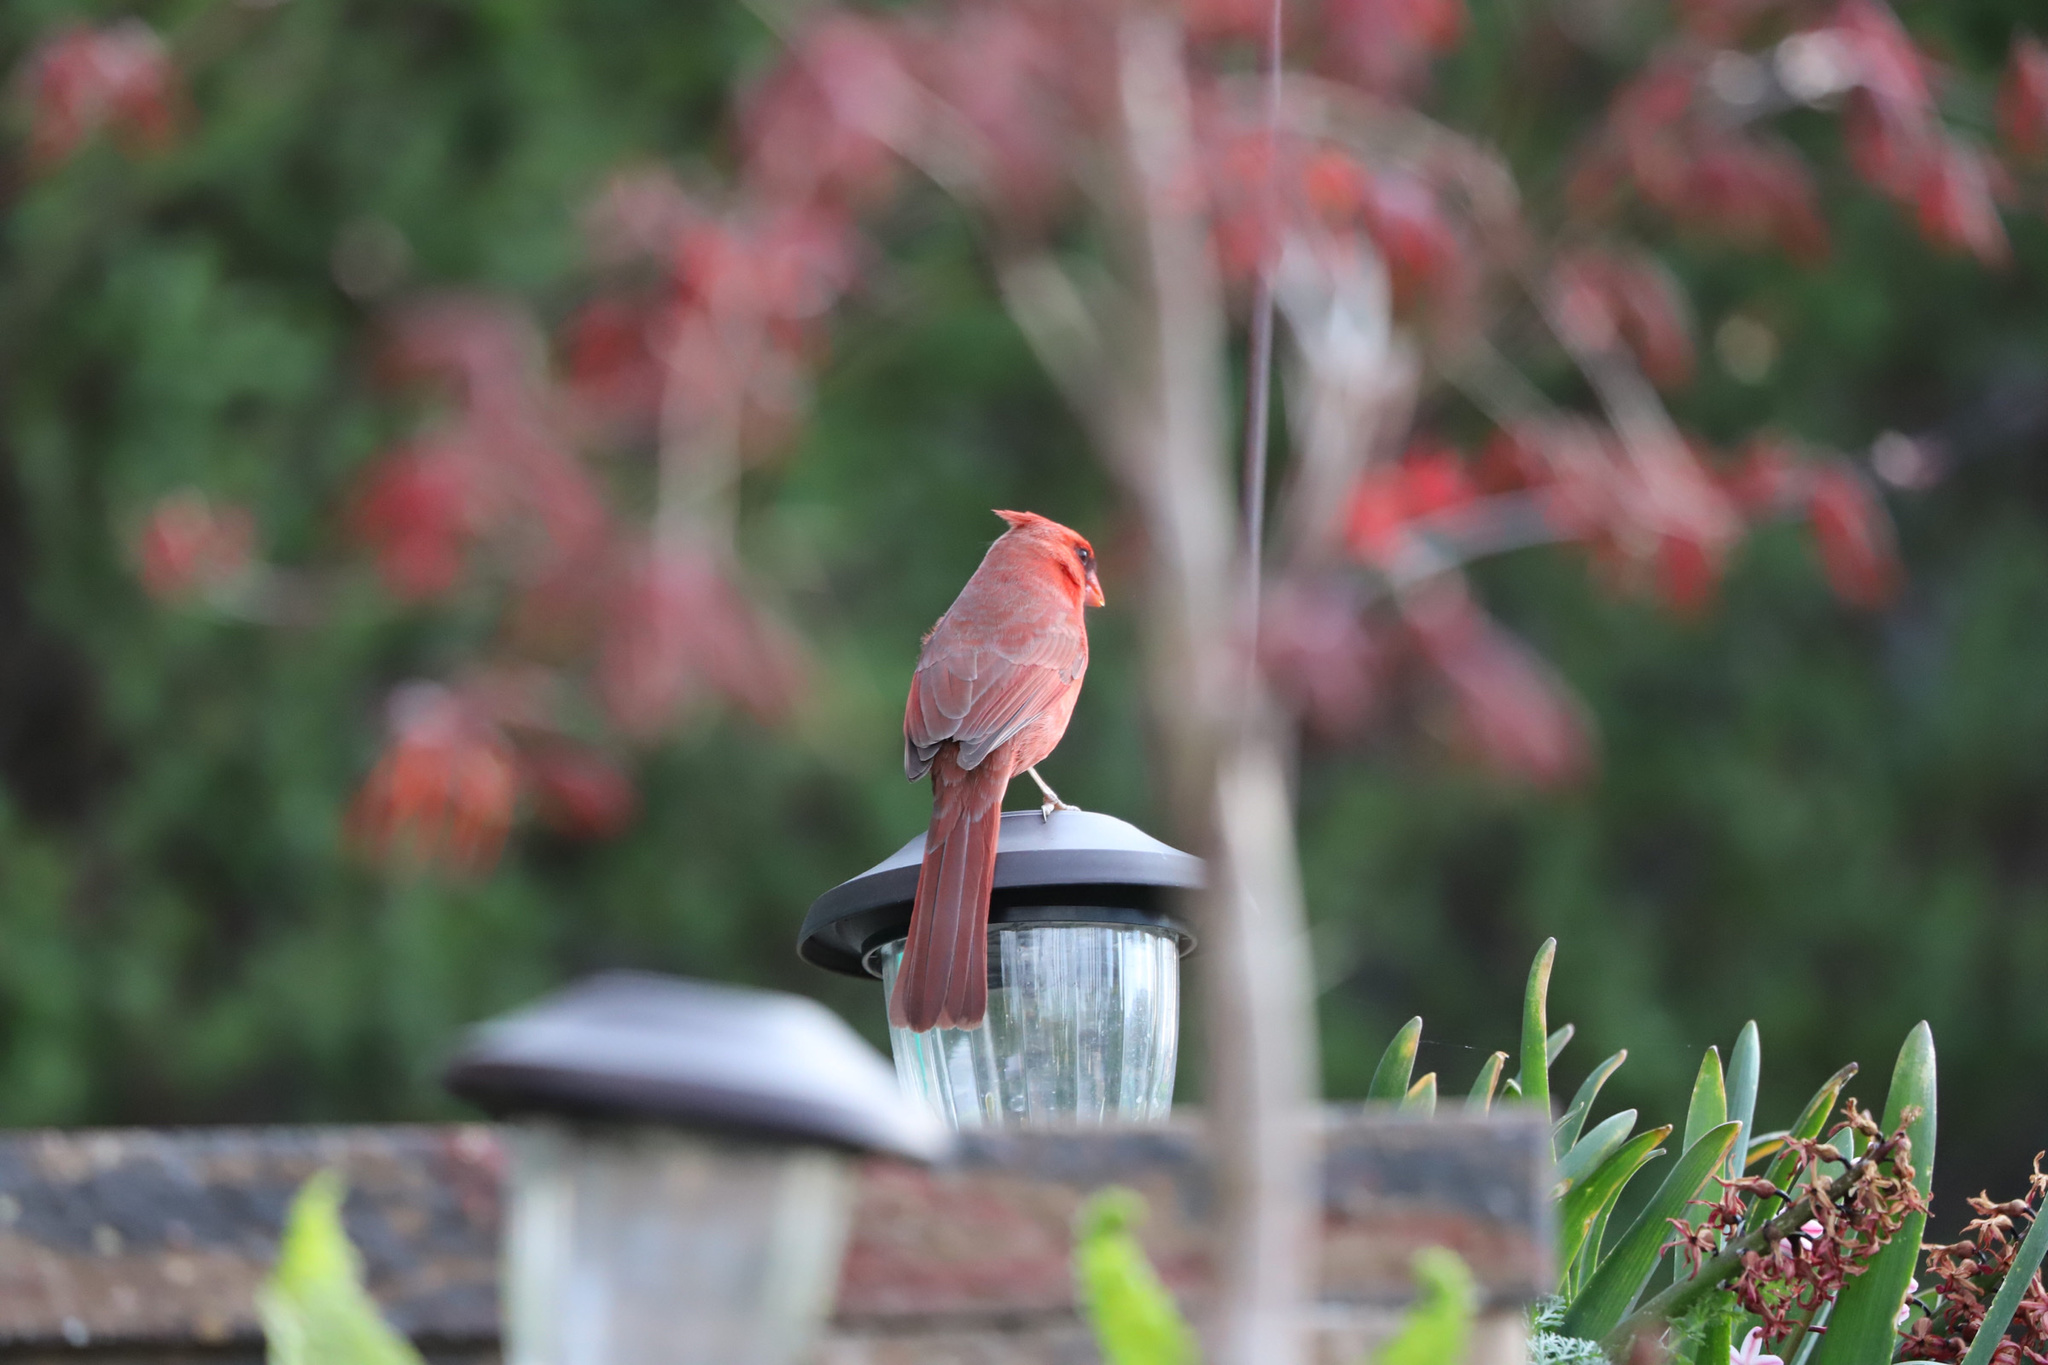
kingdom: Animalia
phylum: Chordata
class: Aves
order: Passeriformes
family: Cardinalidae
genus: Cardinalis
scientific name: Cardinalis cardinalis
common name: Northern cardinal
